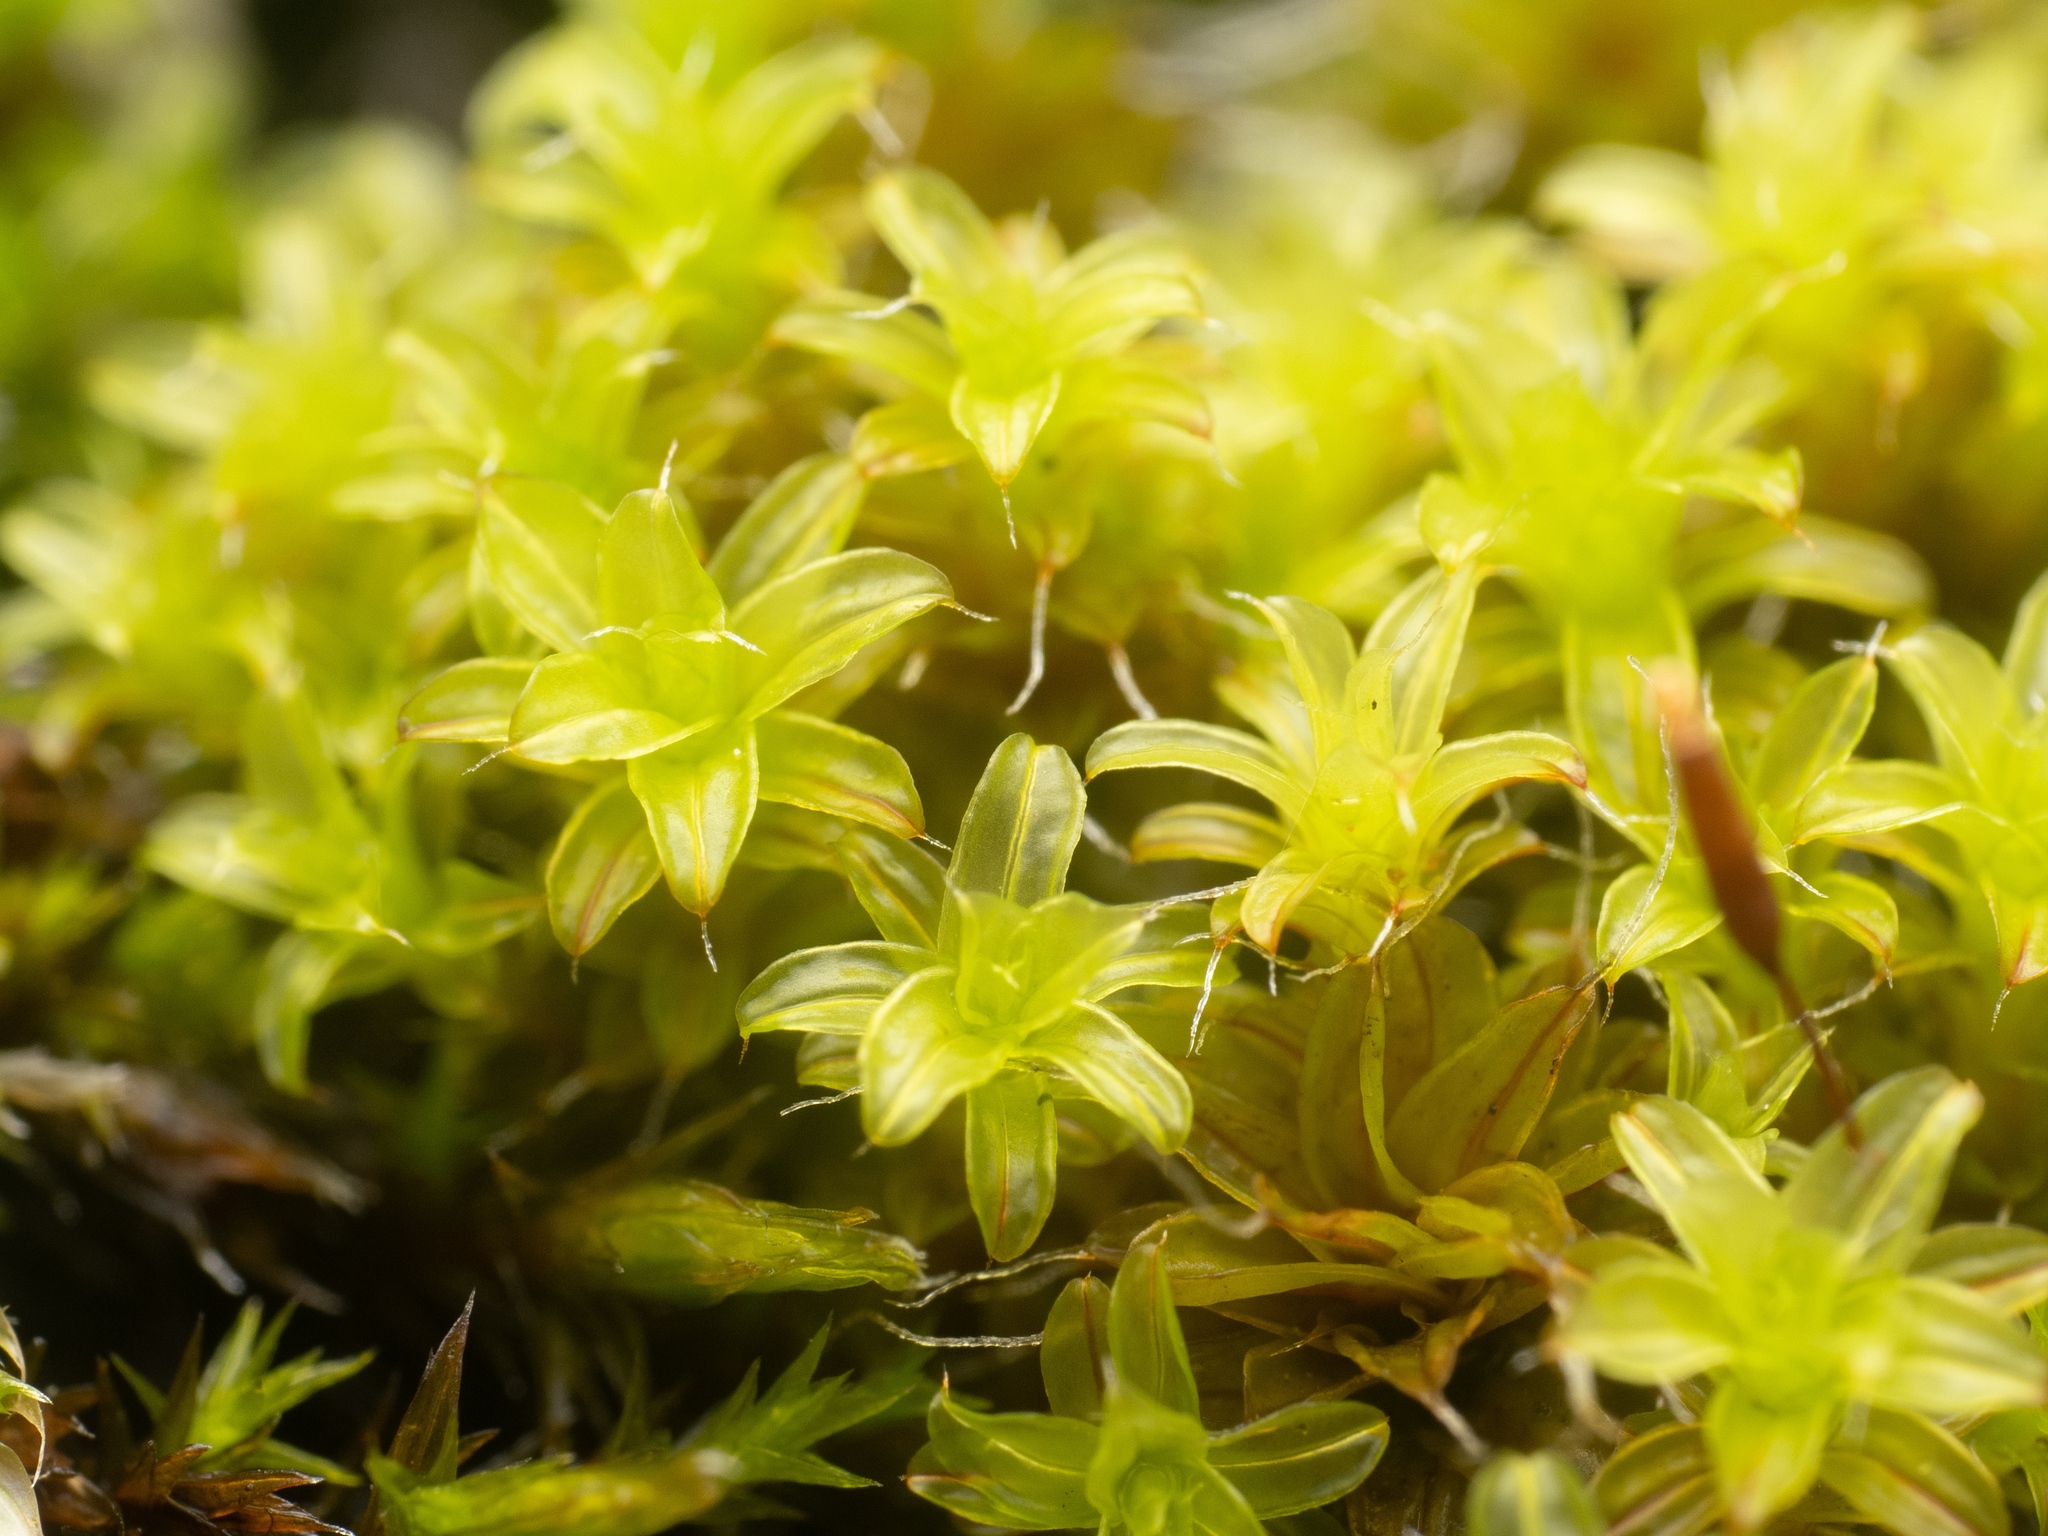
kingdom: Plantae
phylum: Bryophyta
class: Bryopsida
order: Pottiales
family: Pottiaceae
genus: Syntrichia
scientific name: Syntrichia ruralis
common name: Sidewalk screw moss
